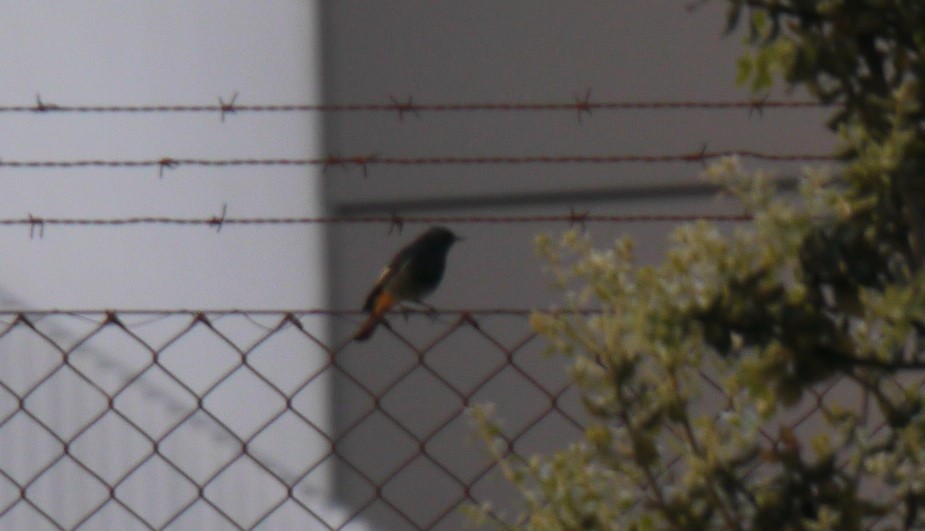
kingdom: Animalia
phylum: Chordata
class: Aves
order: Passeriformes
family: Muscicapidae
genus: Phoenicurus
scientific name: Phoenicurus ochruros
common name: Black redstart
